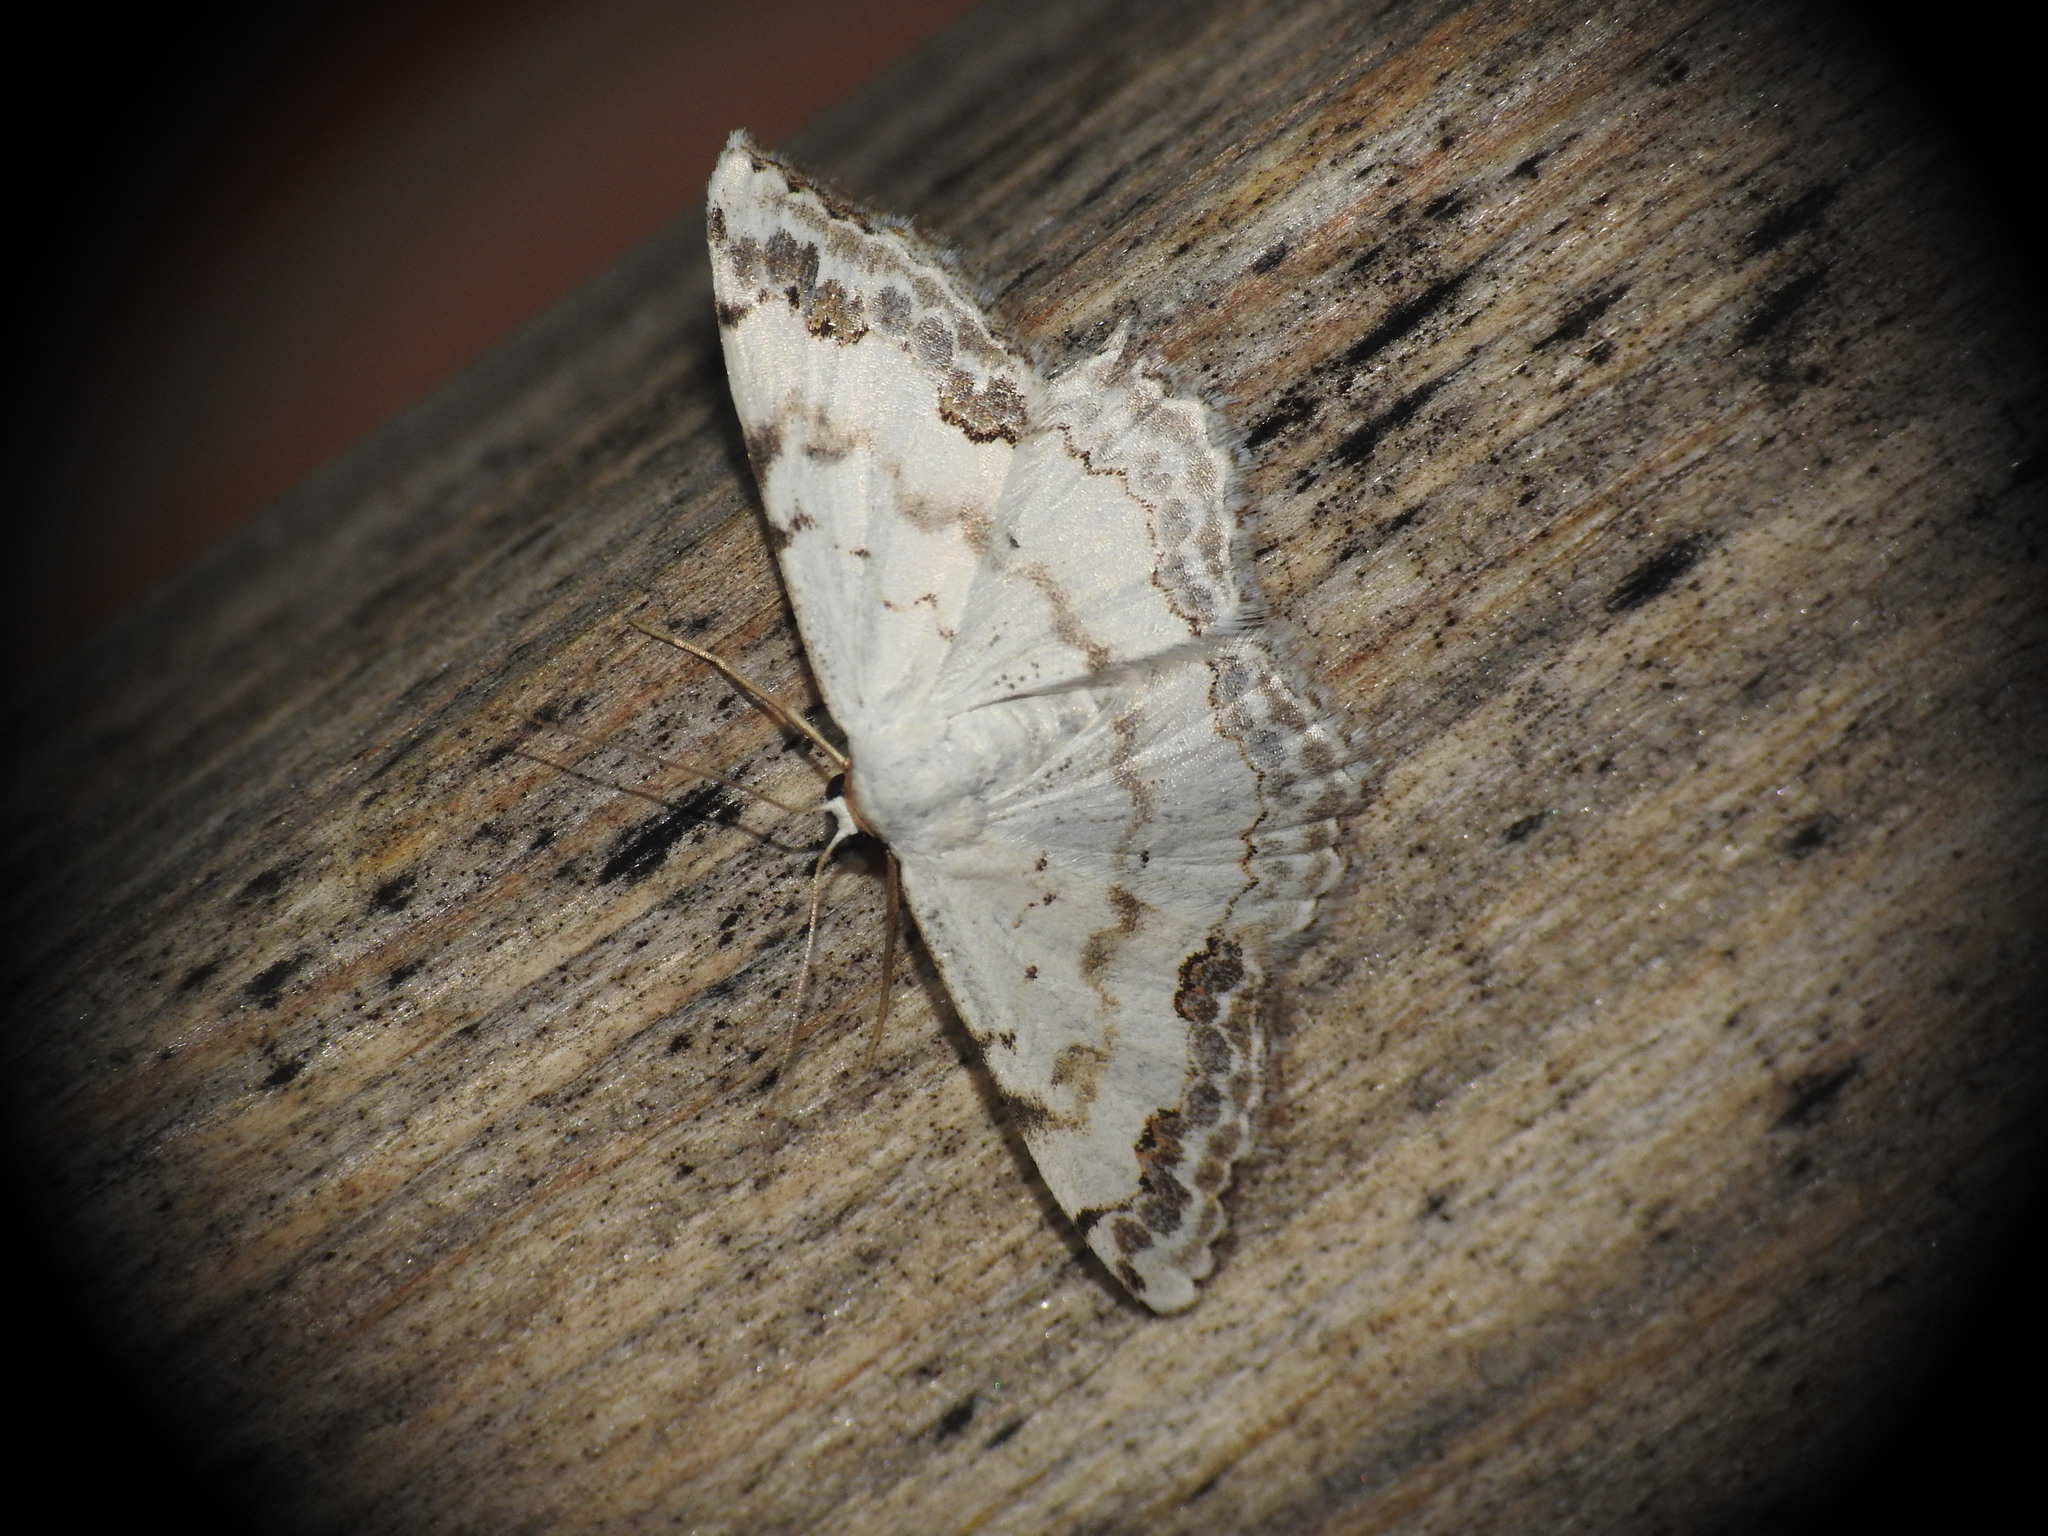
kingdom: Animalia
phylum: Arthropoda
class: Insecta
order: Lepidoptera
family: Geometridae
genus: Scopula
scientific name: Scopula decorata
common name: Middle lace border
